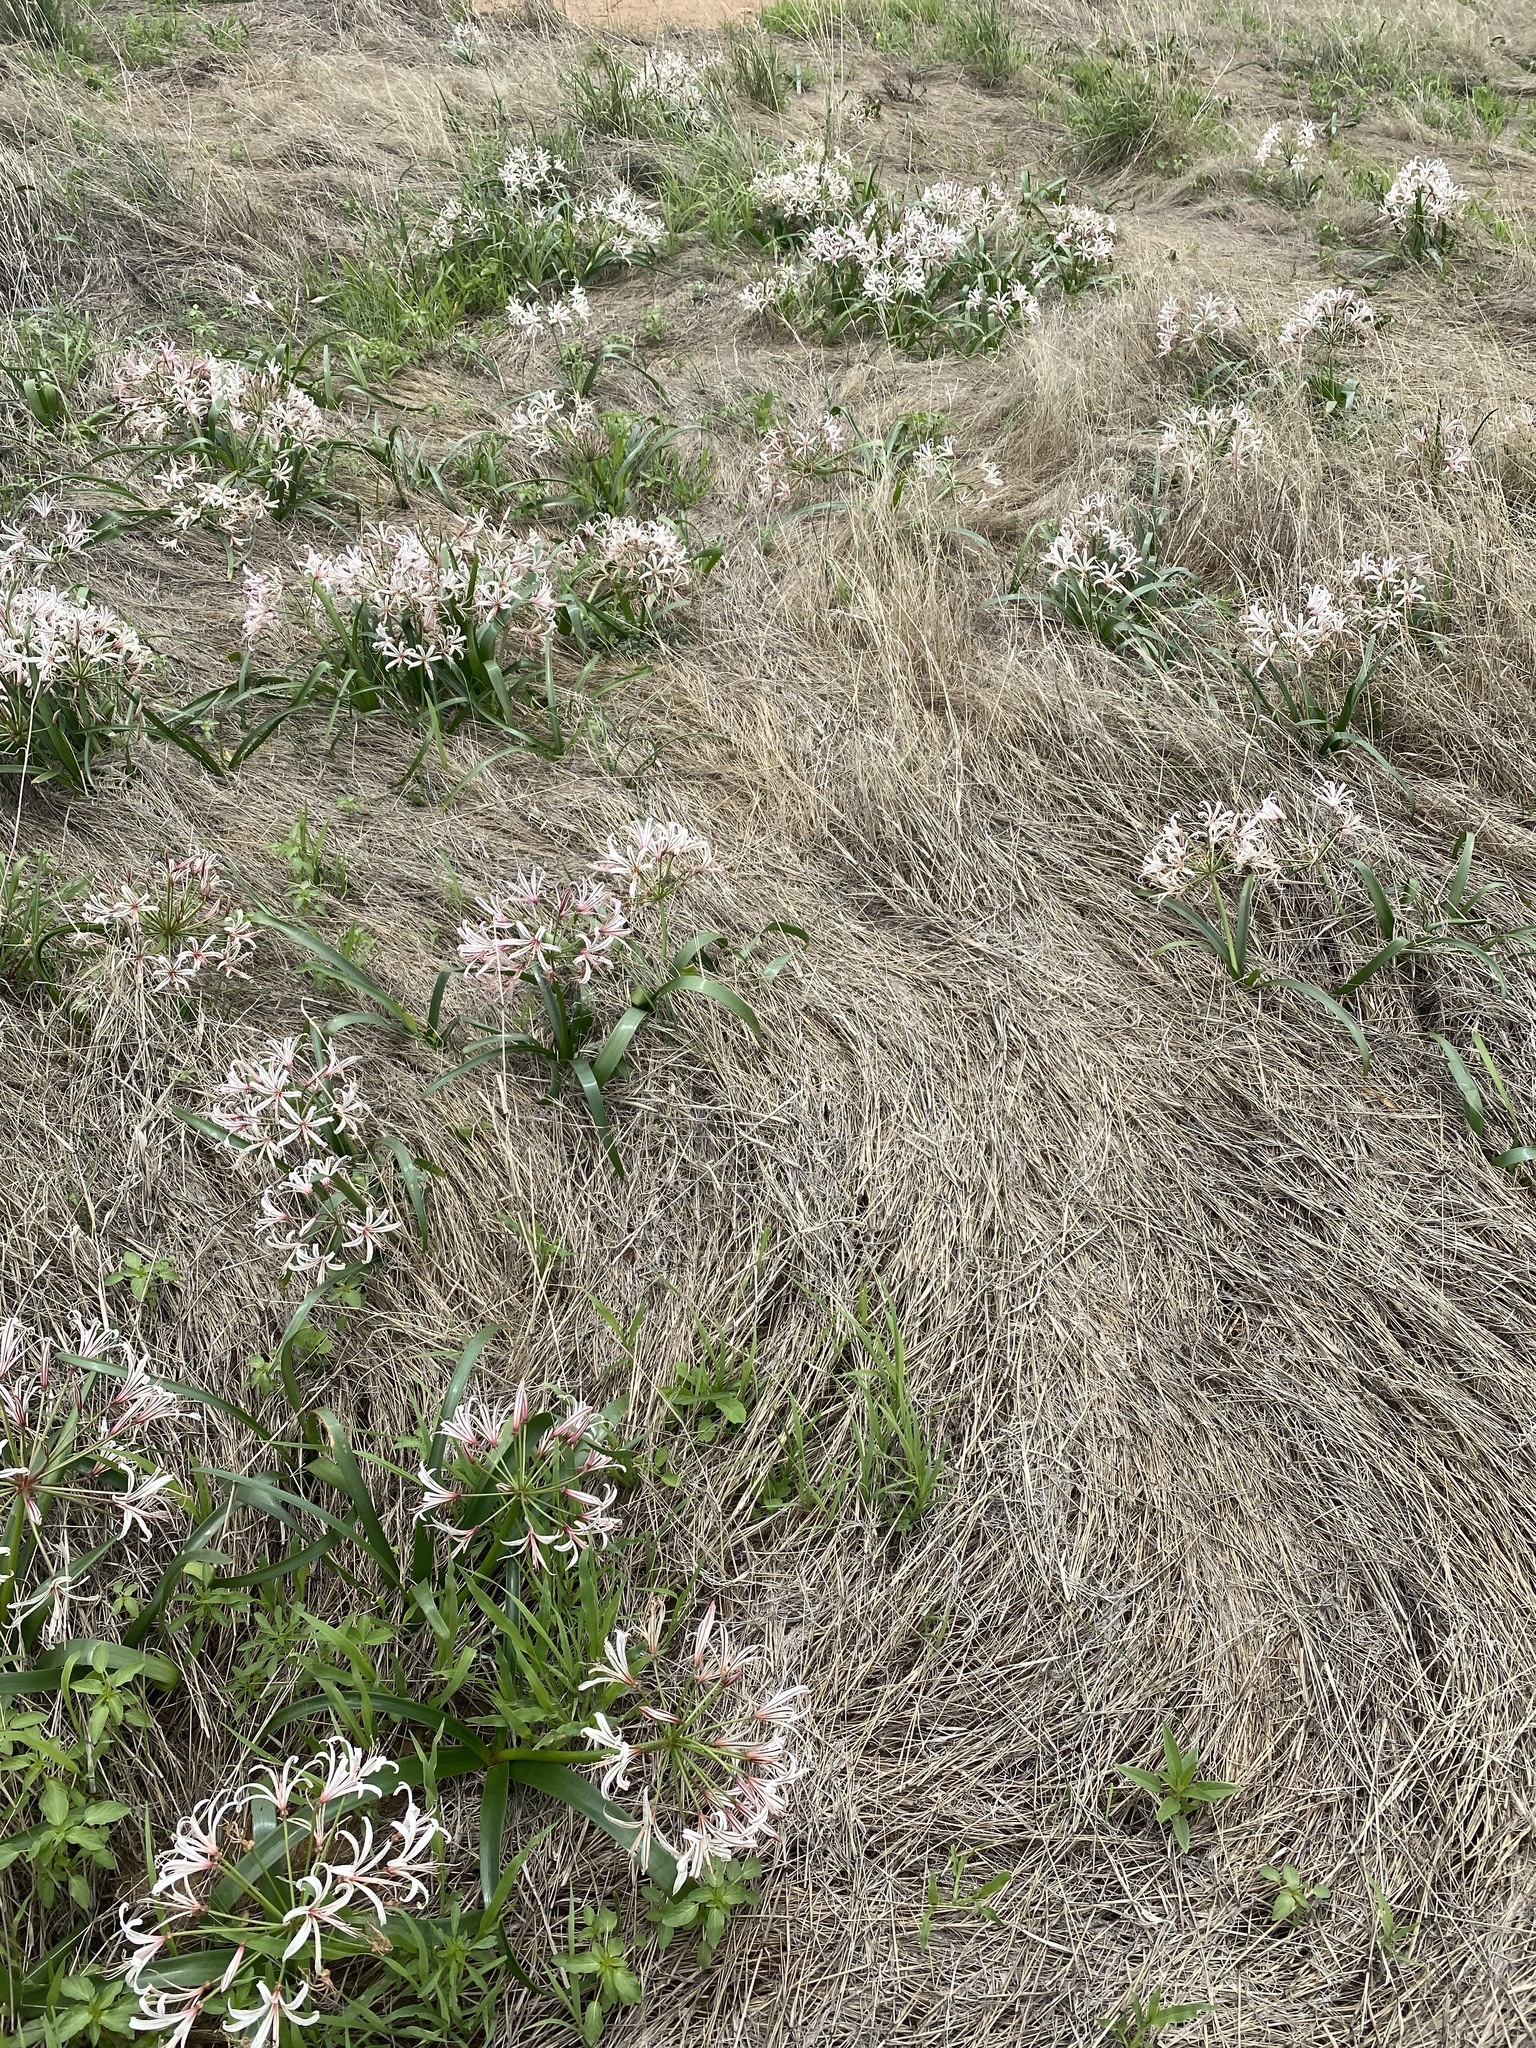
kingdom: Plantae
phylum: Tracheophyta
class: Liliopsida
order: Asparagales
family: Amaryllidaceae
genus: Nerine
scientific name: Nerine laticoma
